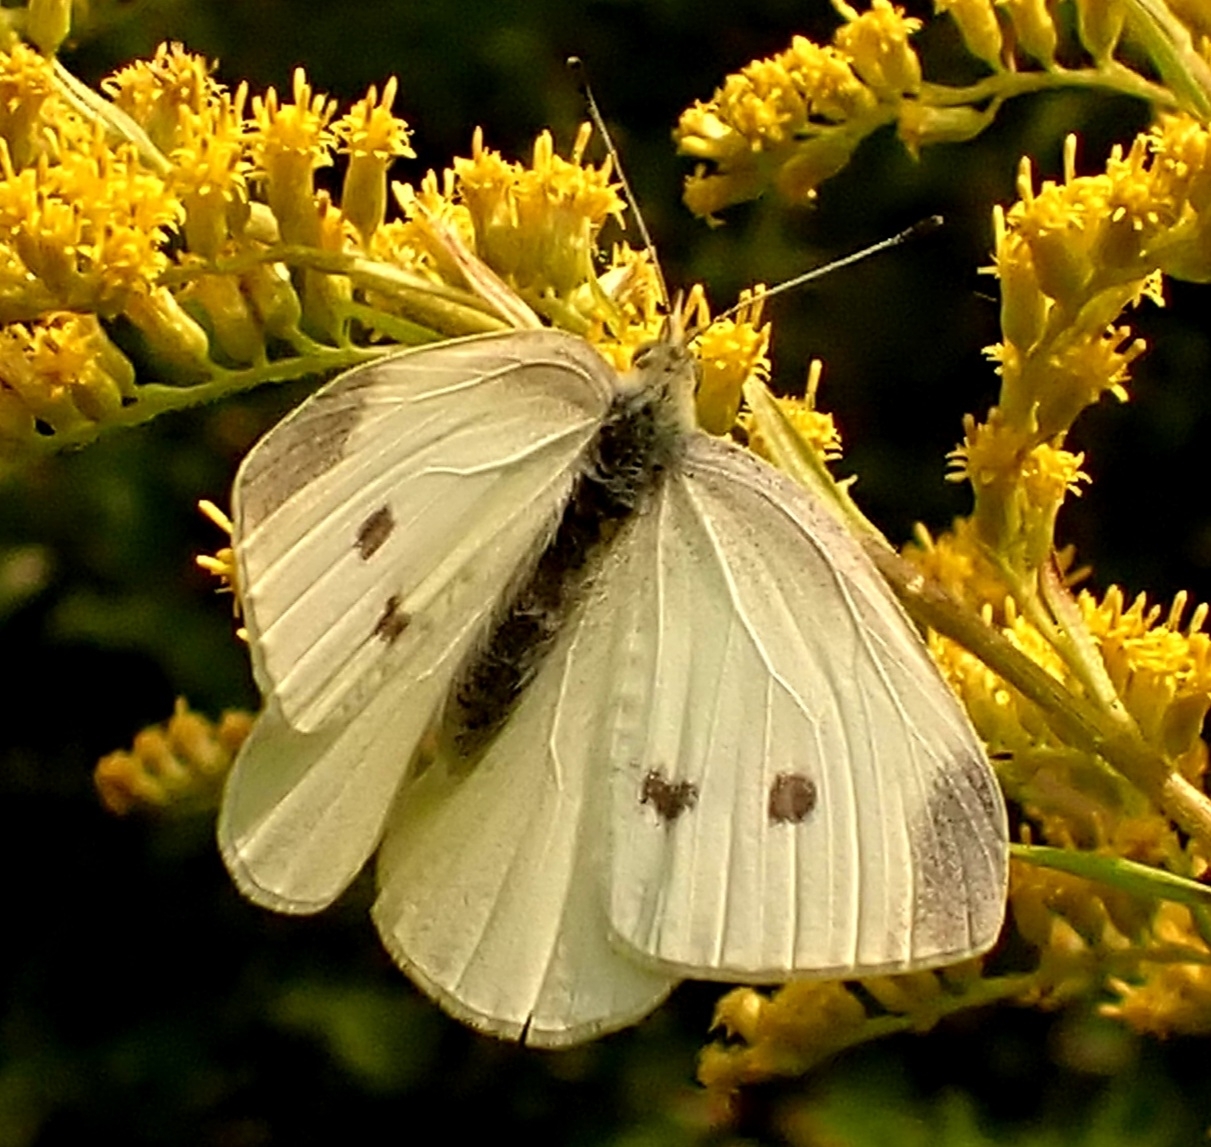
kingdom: Animalia
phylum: Arthropoda
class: Insecta
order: Lepidoptera
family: Pieridae
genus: Pieris
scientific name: Pieris rapae
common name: Small white
